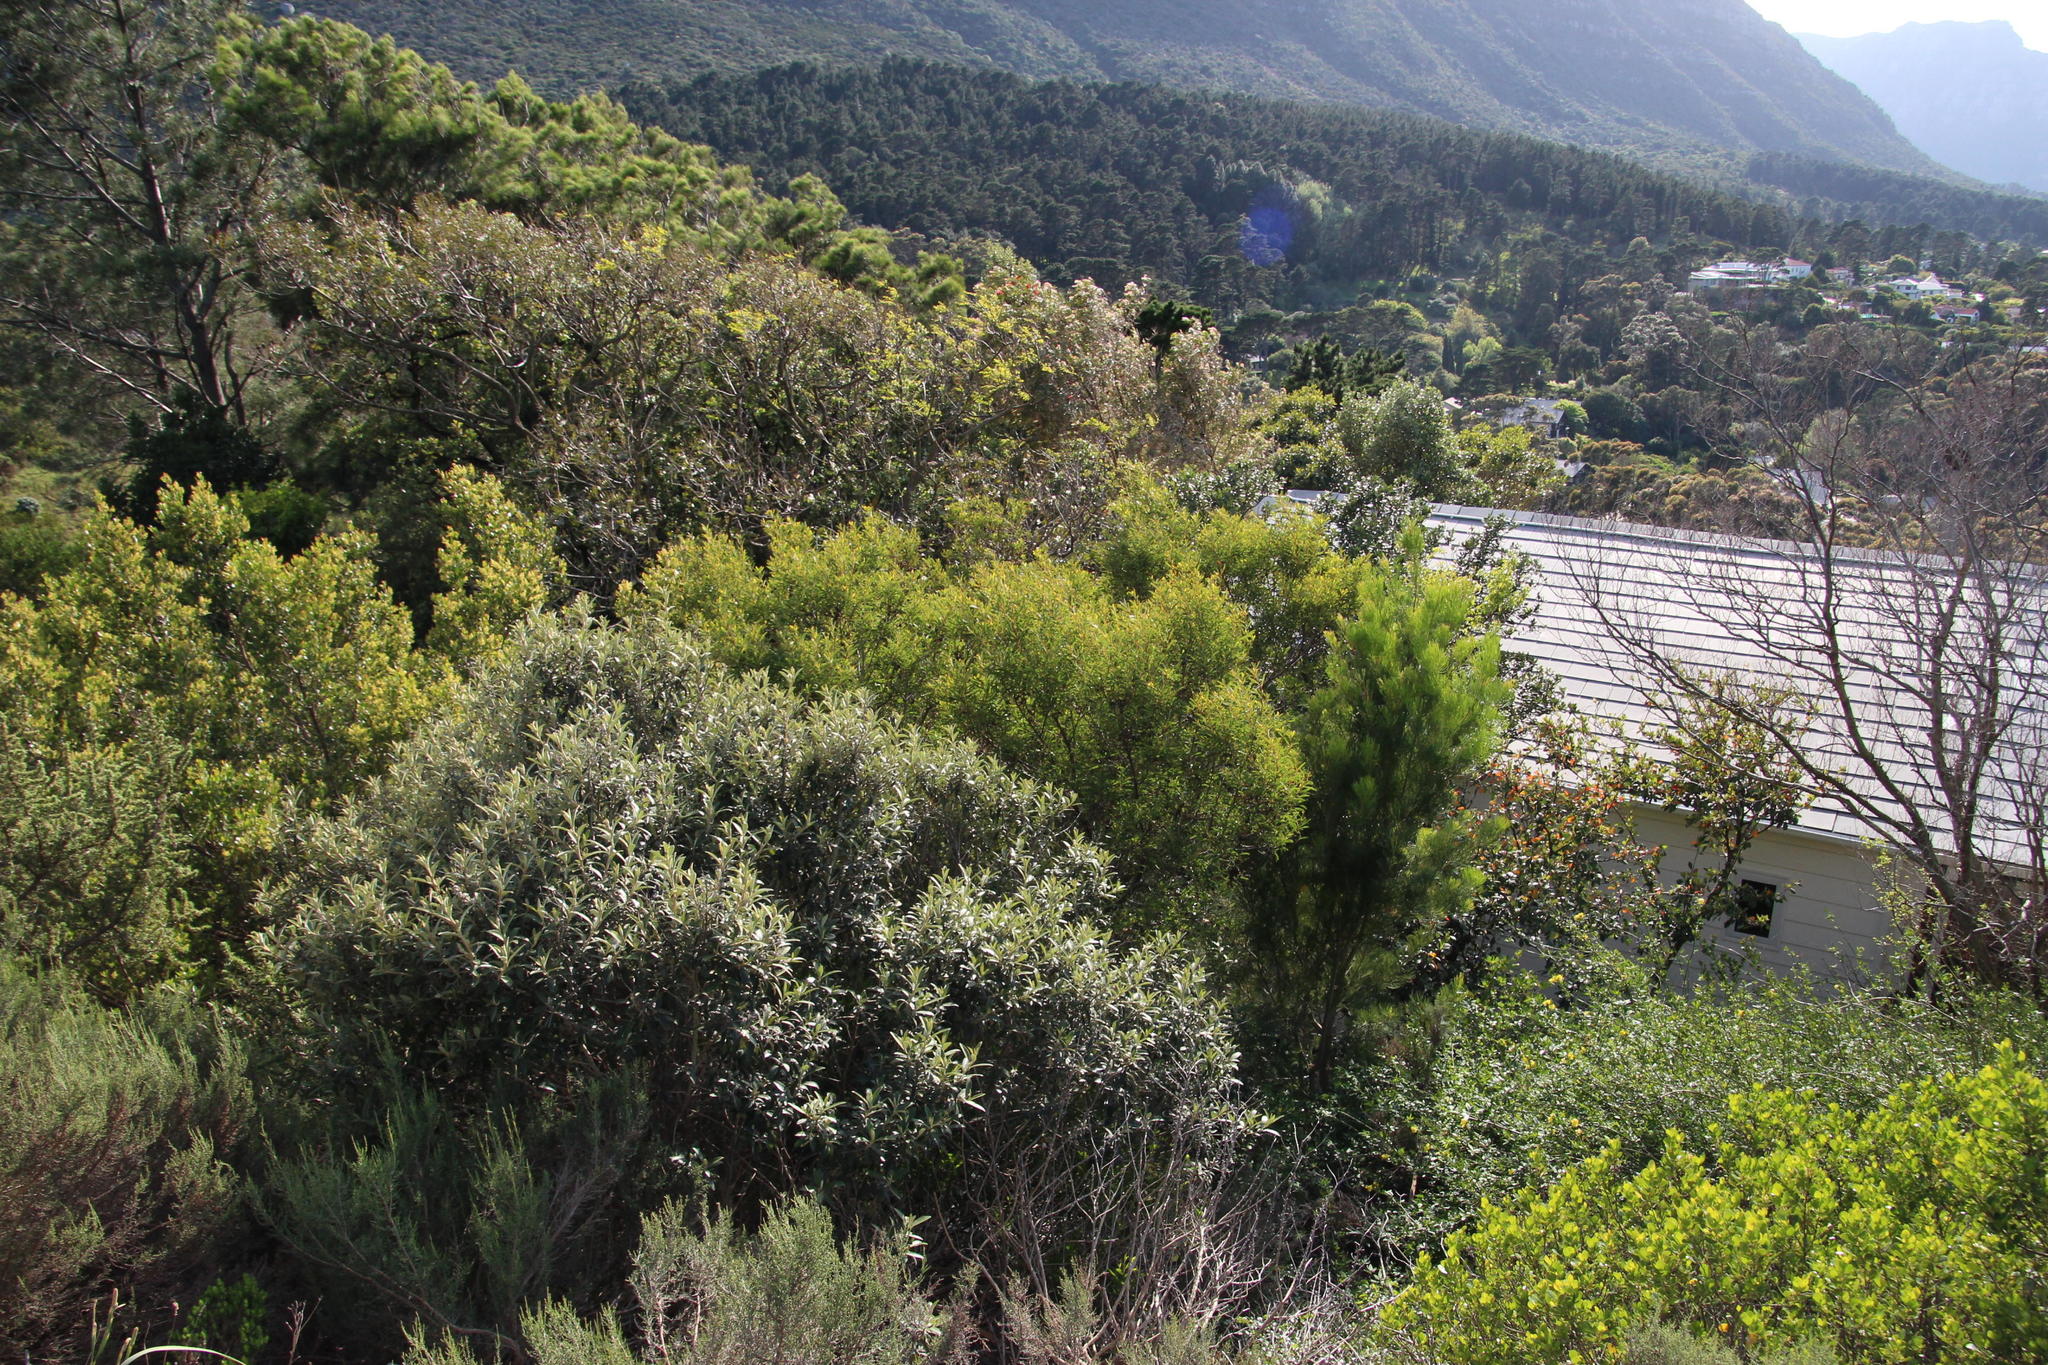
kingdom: Plantae
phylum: Tracheophyta
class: Magnoliopsida
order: Fabales
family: Fabaceae
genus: Acacia
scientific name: Acacia cyclops
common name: Coastal wattle
